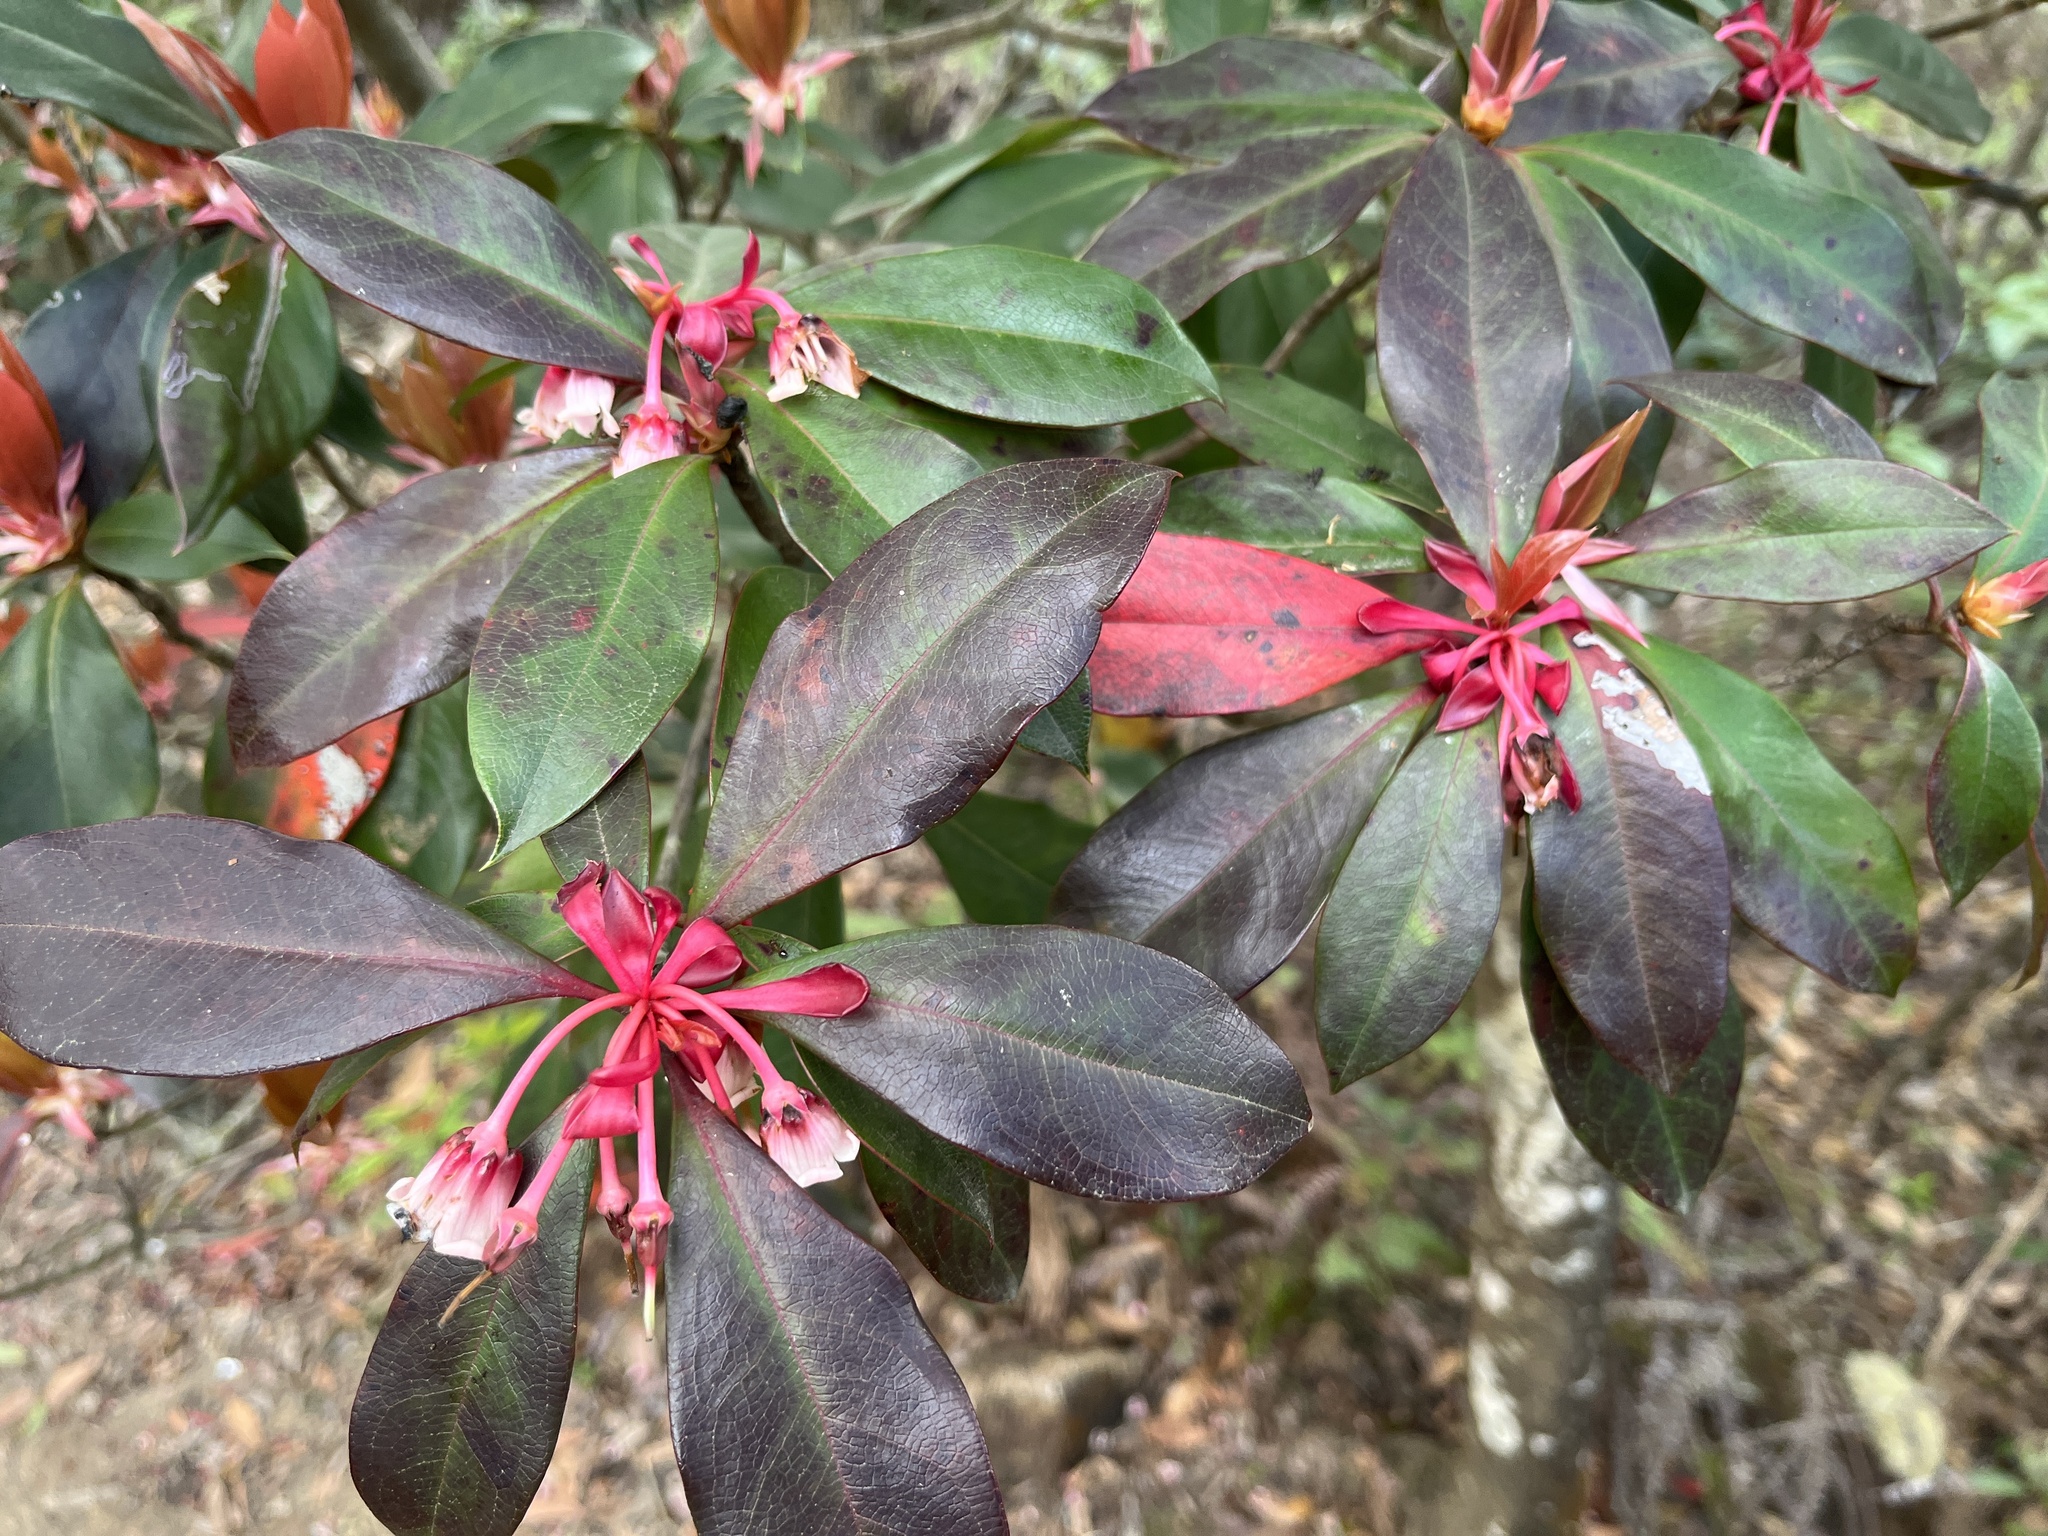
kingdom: Plantae
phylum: Tracheophyta
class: Magnoliopsida
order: Ericales
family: Ericaceae
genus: Enkianthus
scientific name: Enkianthus quinqueflorus
